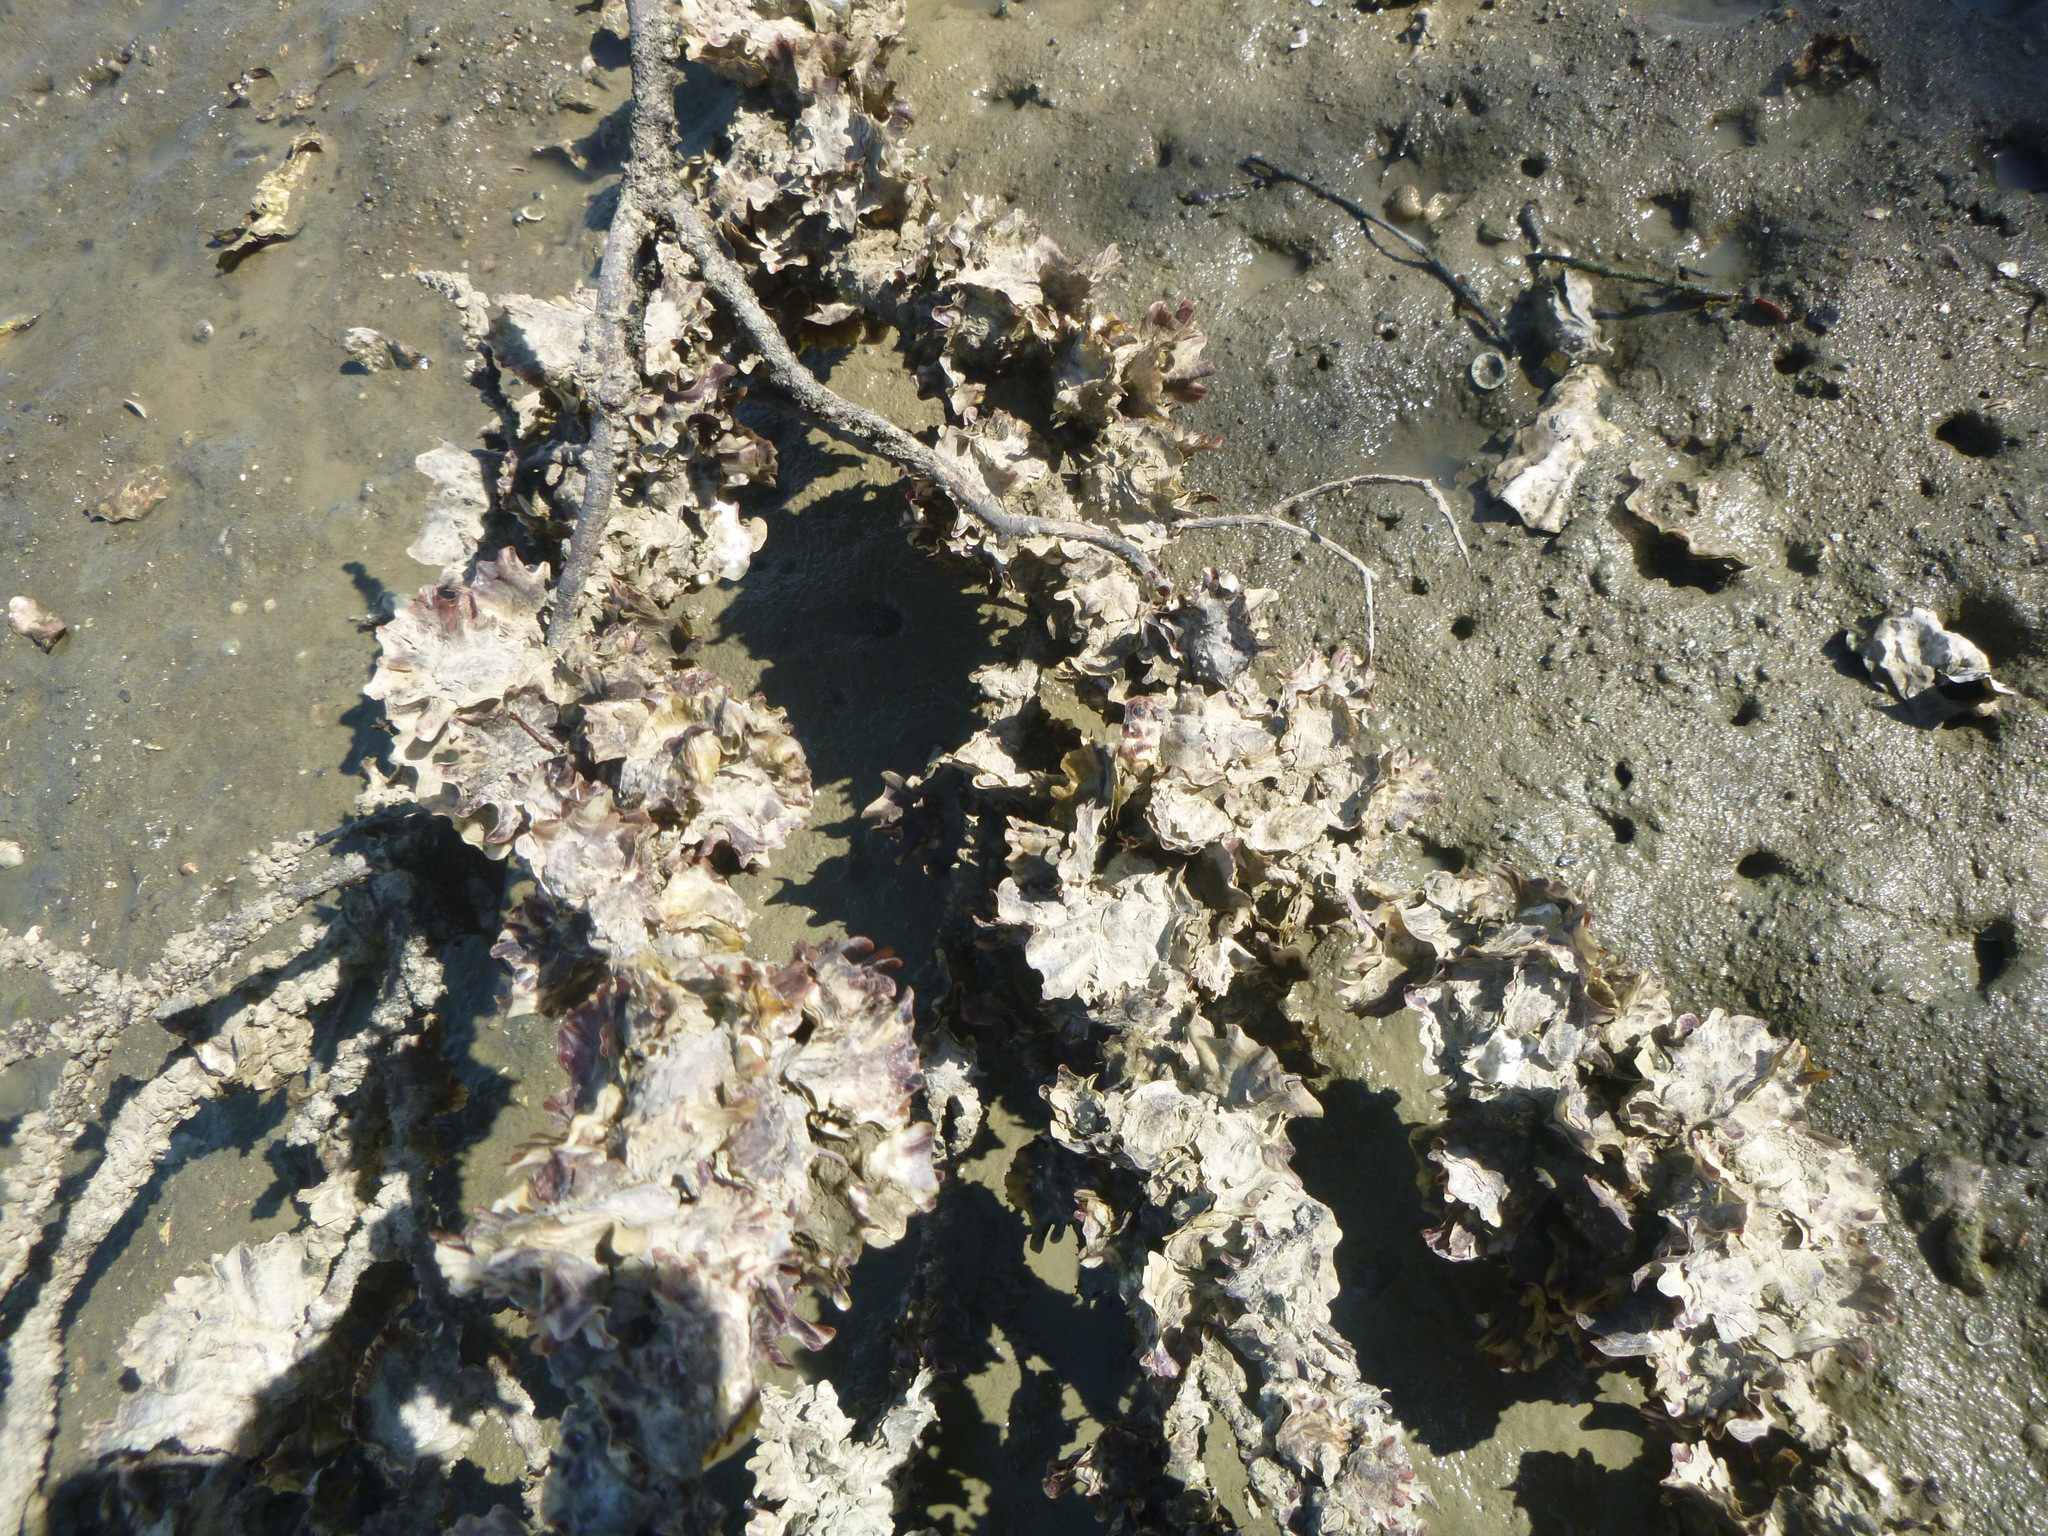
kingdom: Animalia
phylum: Mollusca
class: Bivalvia
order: Ostreida
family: Ostreidae
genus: Magallana
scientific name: Magallana gigas
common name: Pacific oyster
